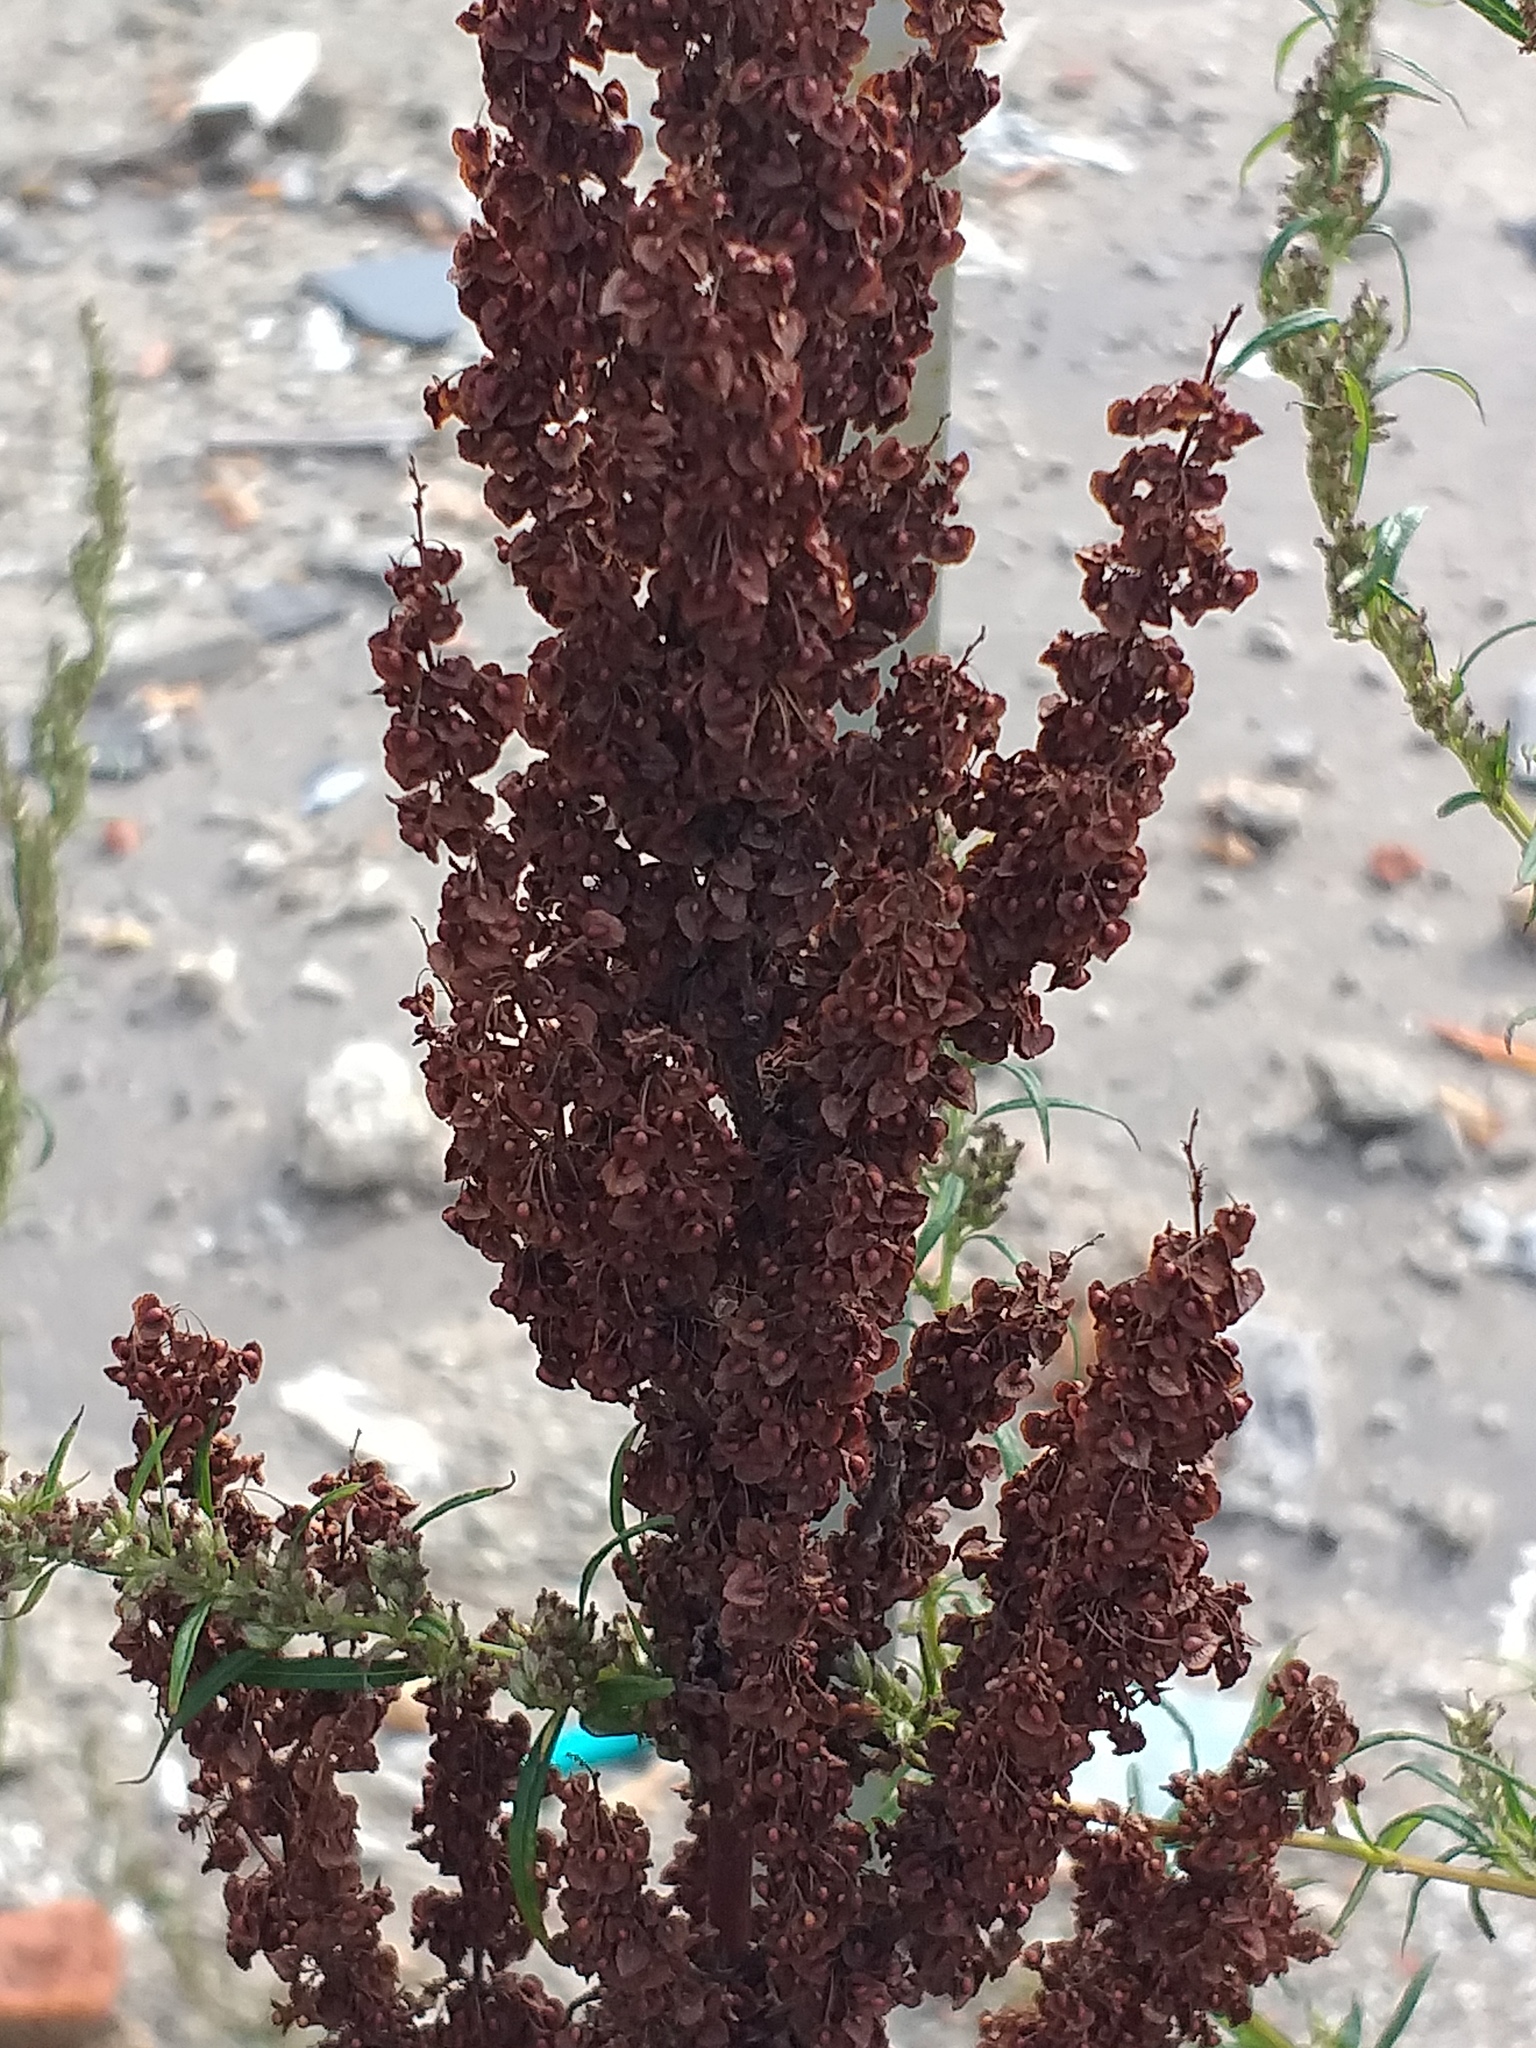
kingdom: Plantae
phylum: Tracheophyta
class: Magnoliopsida
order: Caryophyllales
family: Polygonaceae
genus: Rumex
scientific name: Rumex crispus
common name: Curled dock
